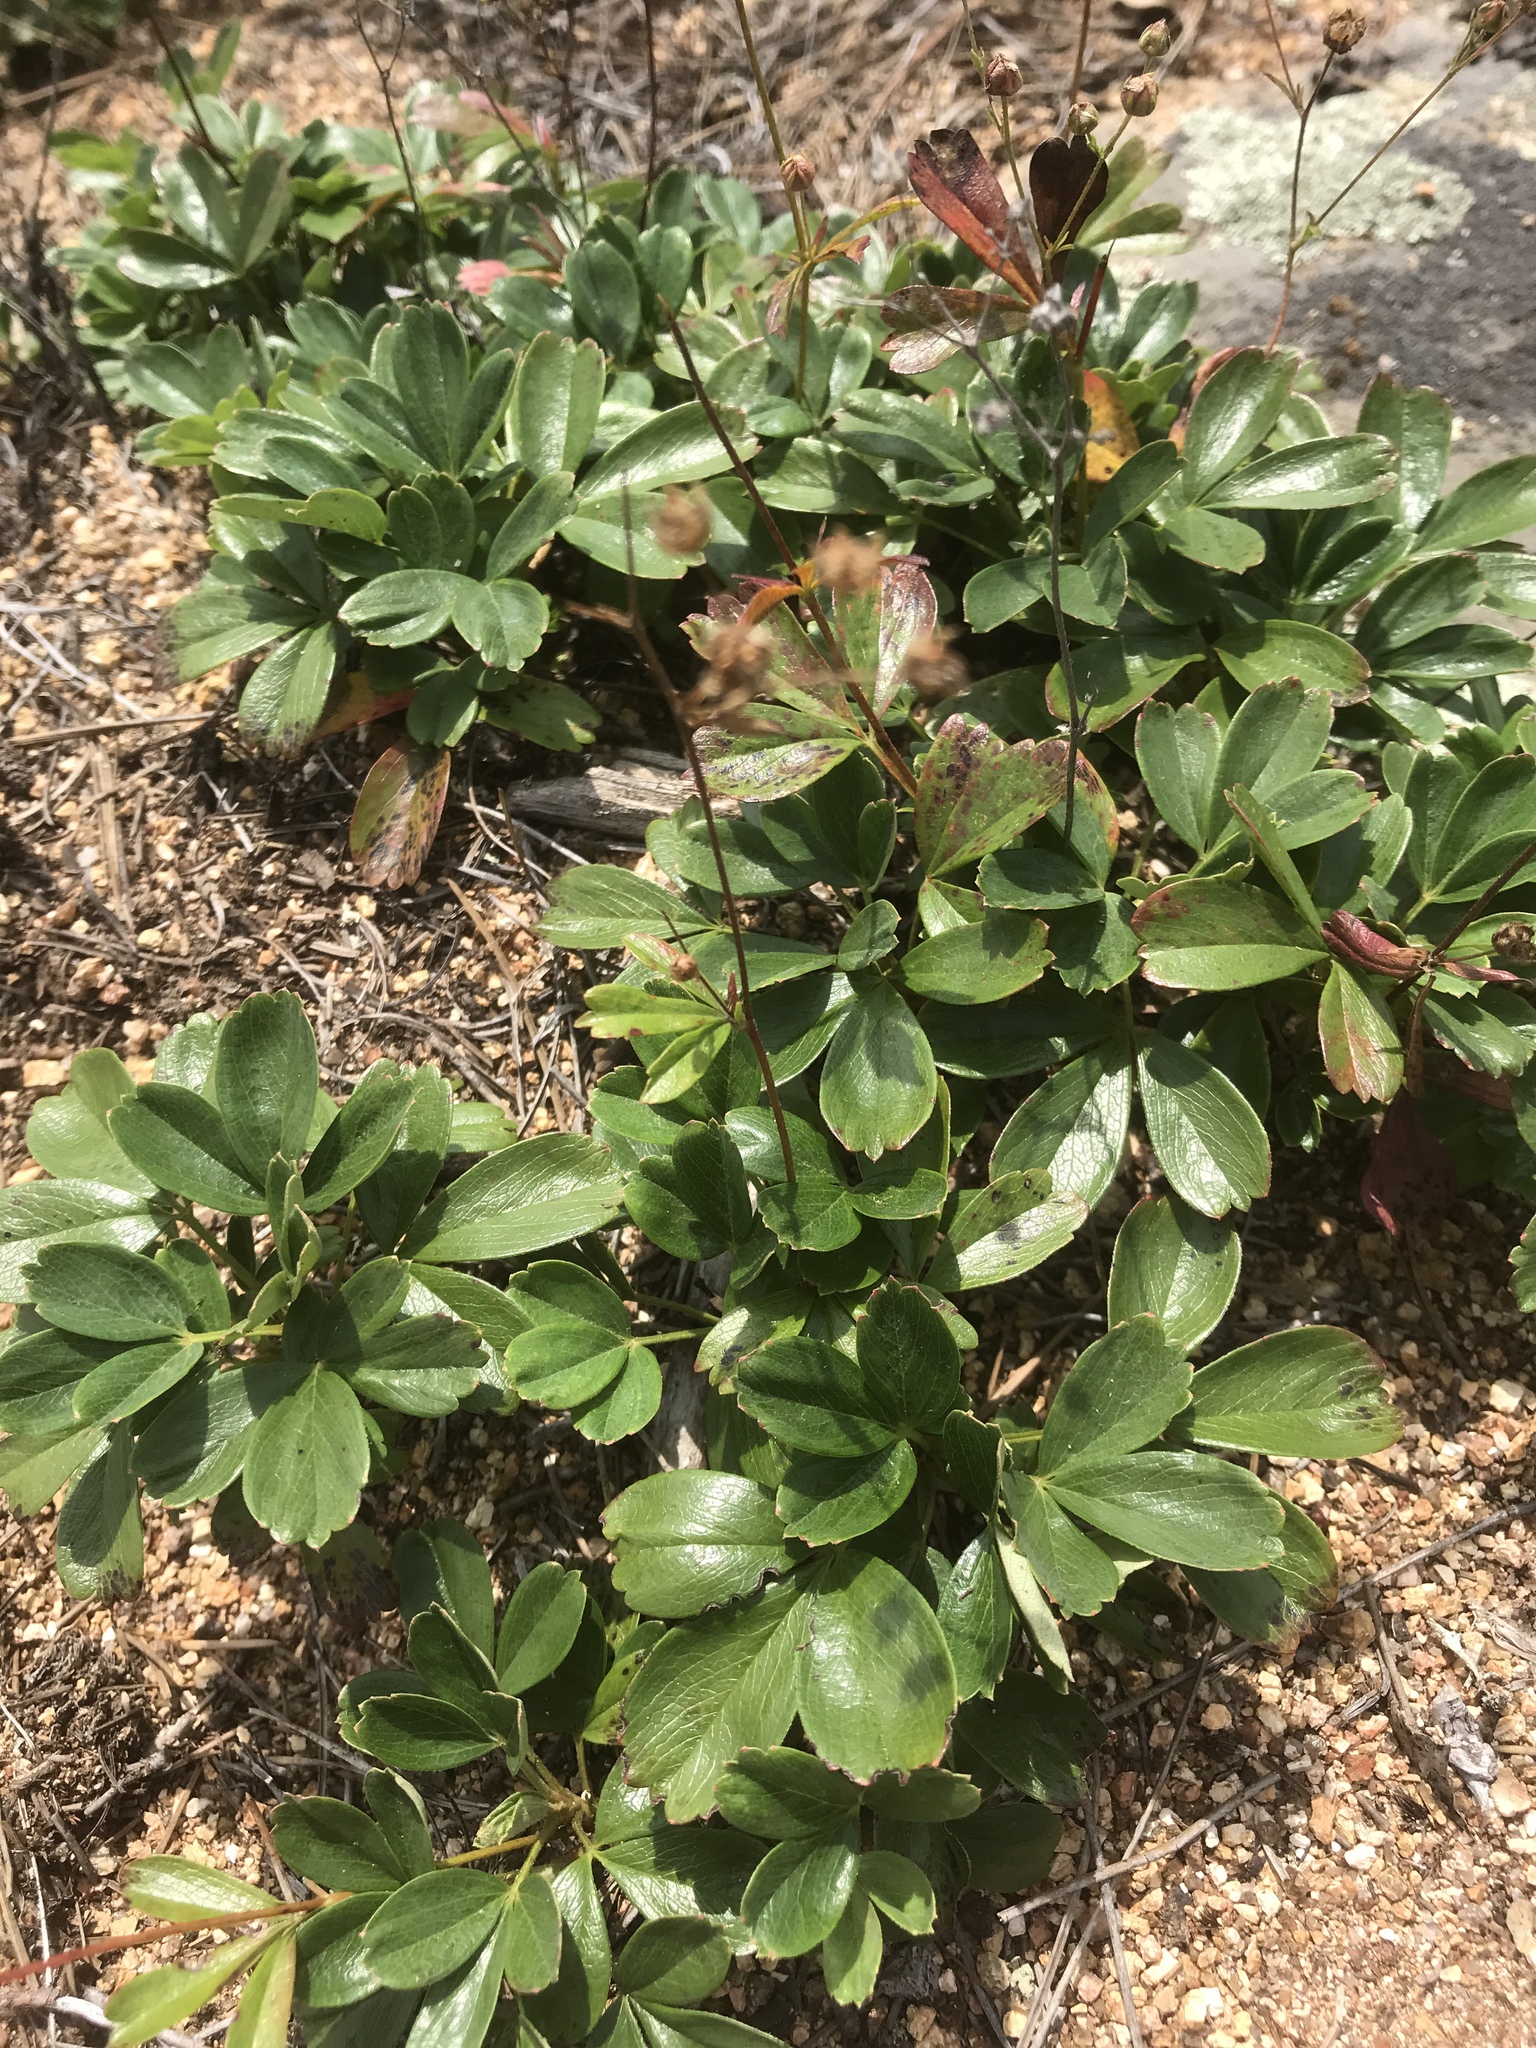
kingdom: Plantae
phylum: Tracheophyta
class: Magnoliopsida
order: Rosales
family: Rosaceae
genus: Sibbaldia
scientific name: Sibbaldia tridentata
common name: Three-toothed cinquefoil
